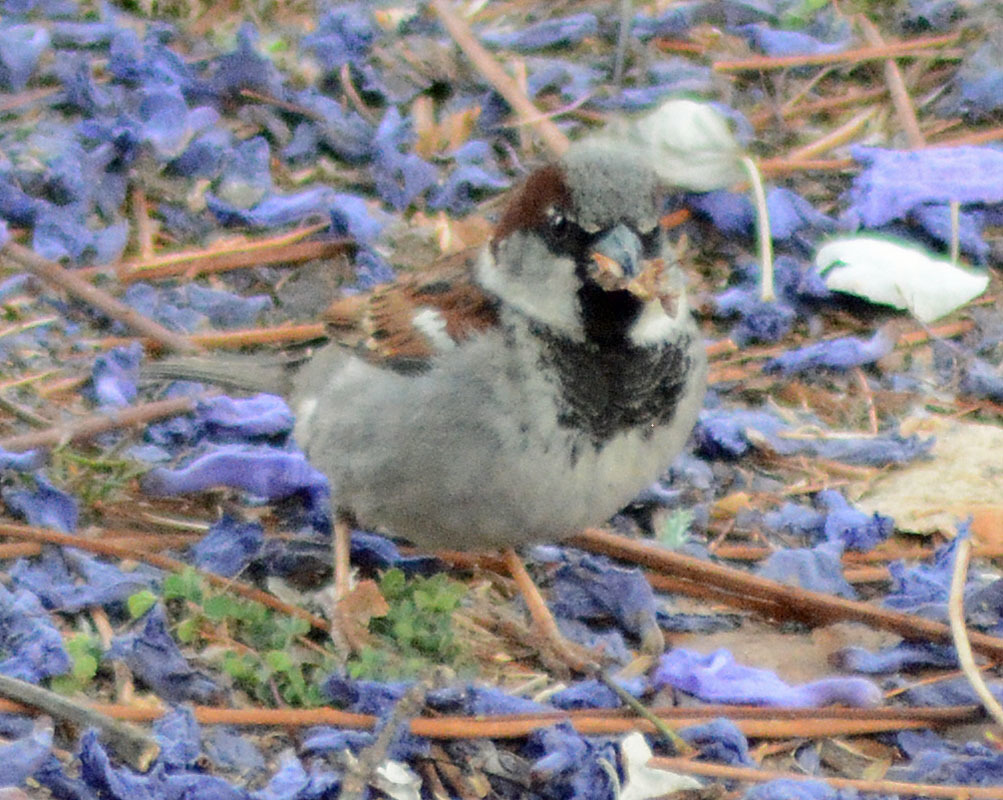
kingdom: Animalia
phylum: Chordata
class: Aves
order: Passeriformes
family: Passeridae
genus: Passer
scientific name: Passer domesticus
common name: House sparrow
